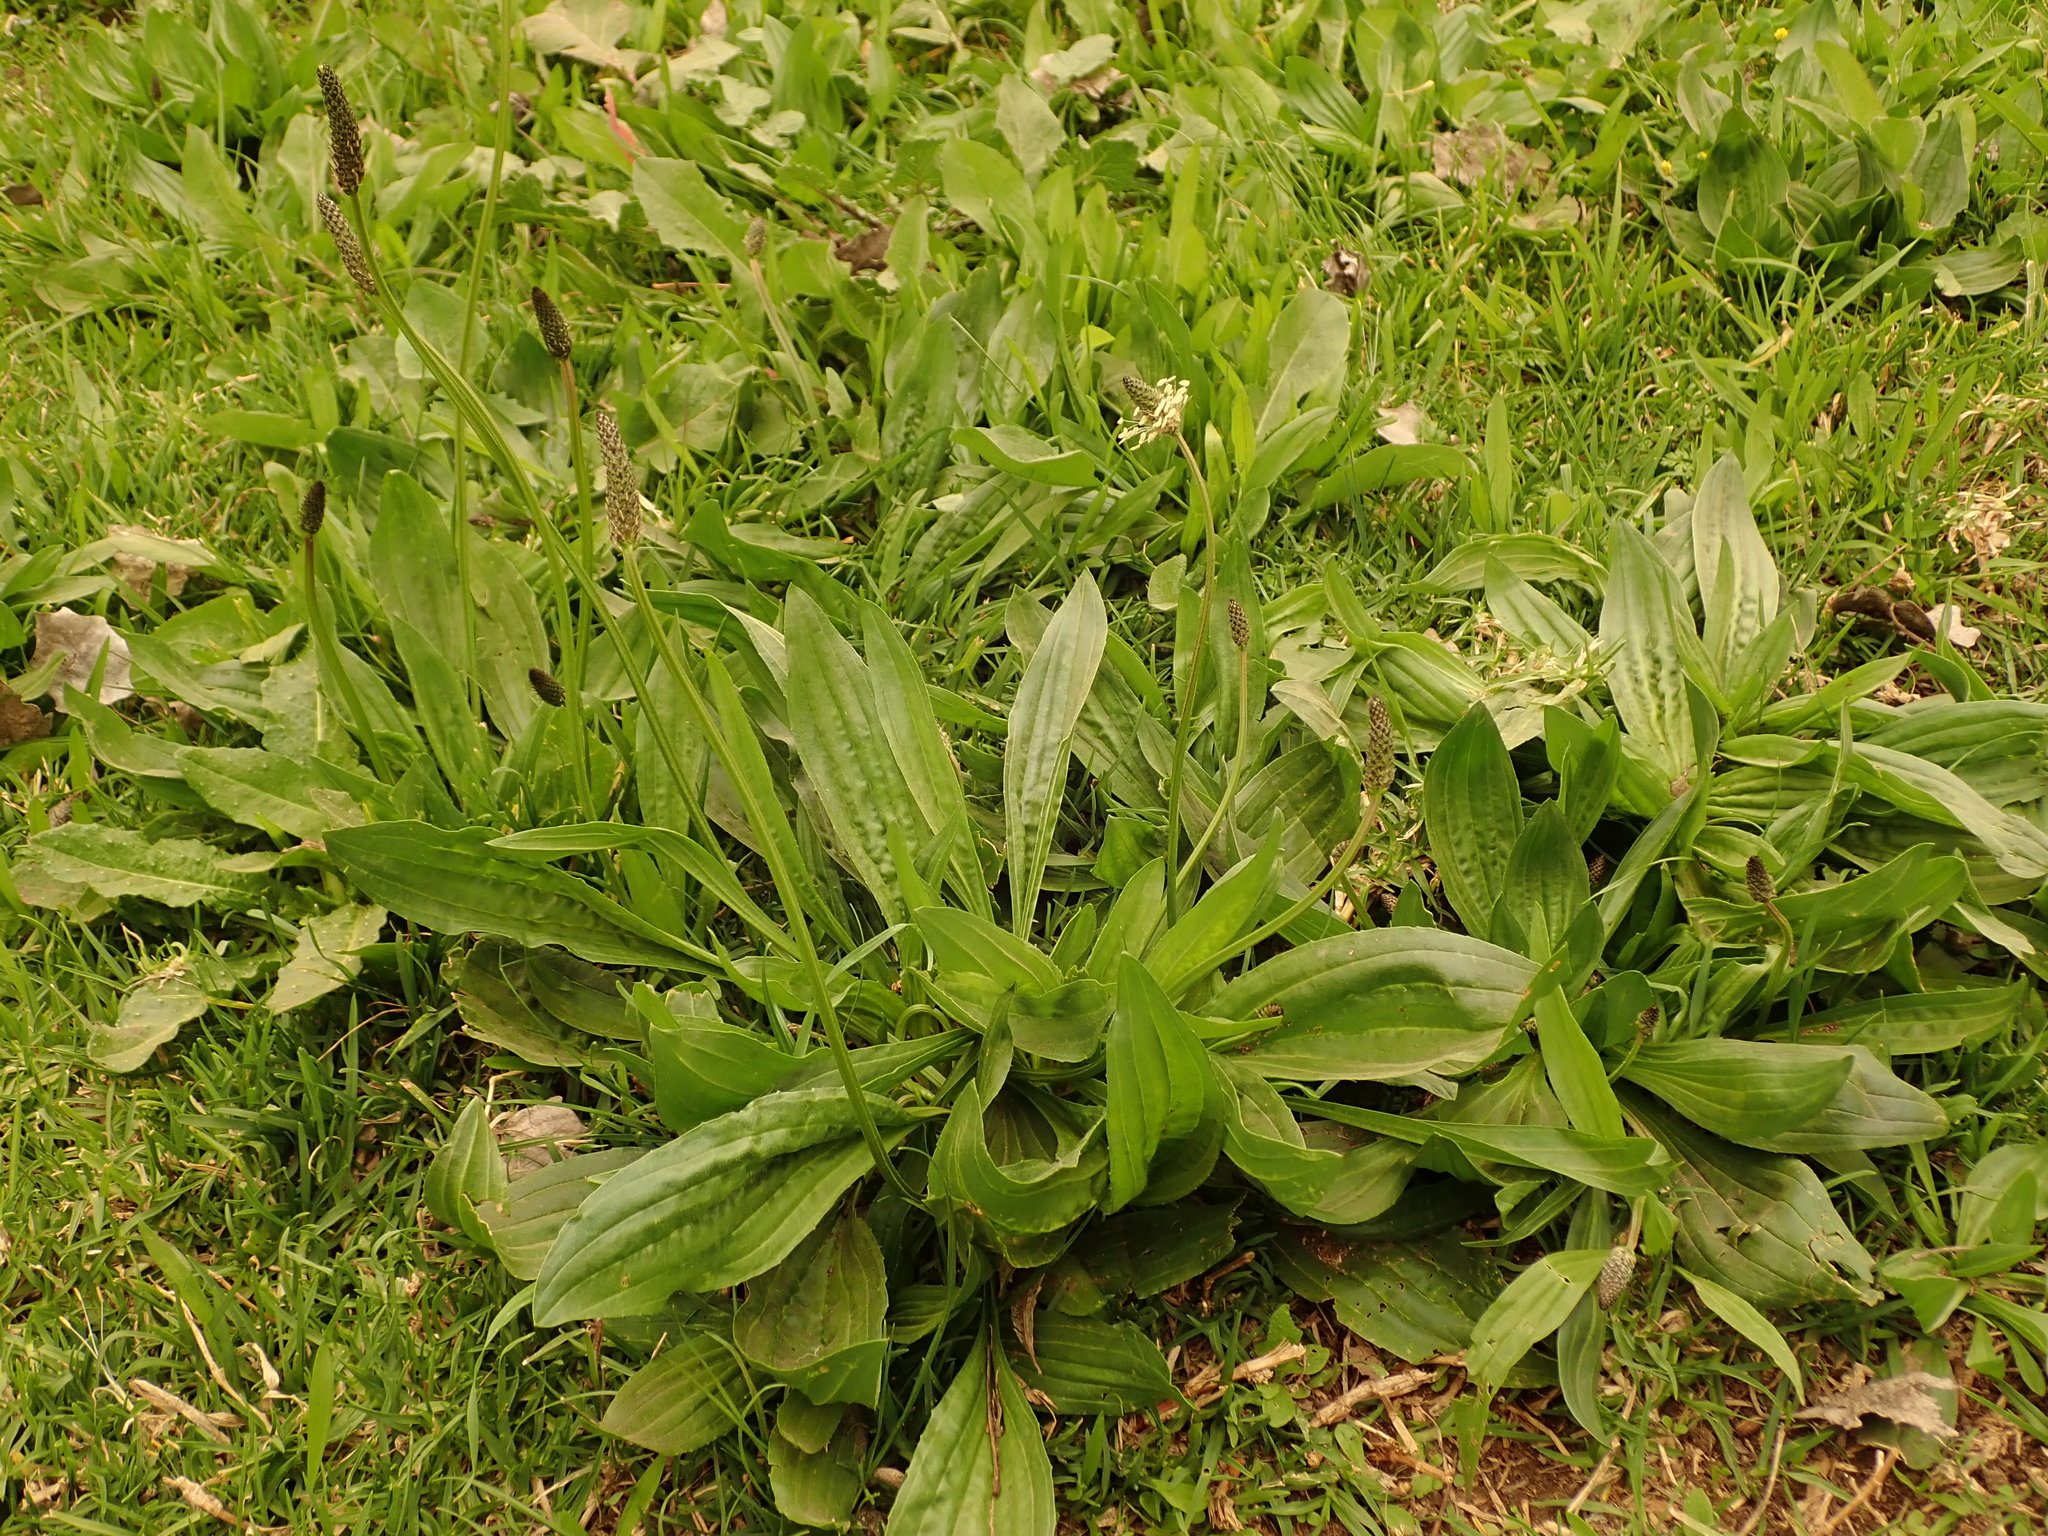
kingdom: Plantae
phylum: Tracheophyta
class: Magnoliopsida
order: Lamiales
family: Plantaginaceae
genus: Plantago
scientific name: Plantago lanceolata
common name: Ribwort plantain
